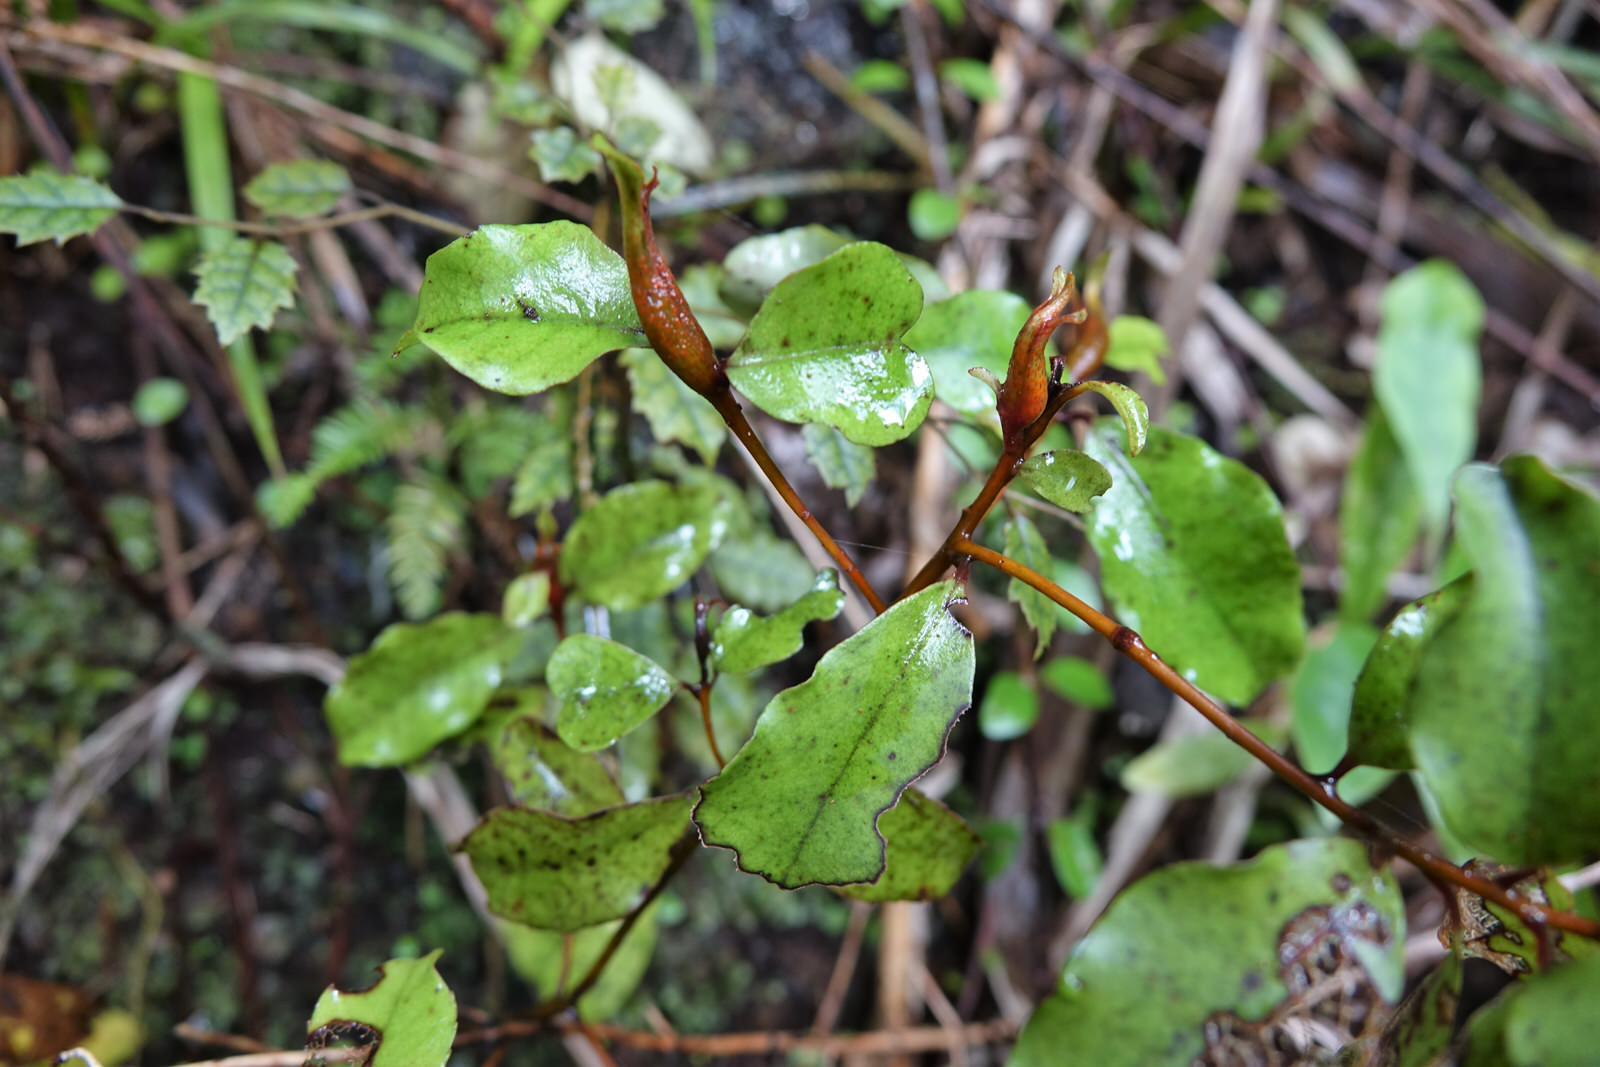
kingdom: Plantae
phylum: Tracheophyta
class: Magnoliopsida
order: Ericales
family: Primulaceae
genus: Myrsine
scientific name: Myrsine australis
